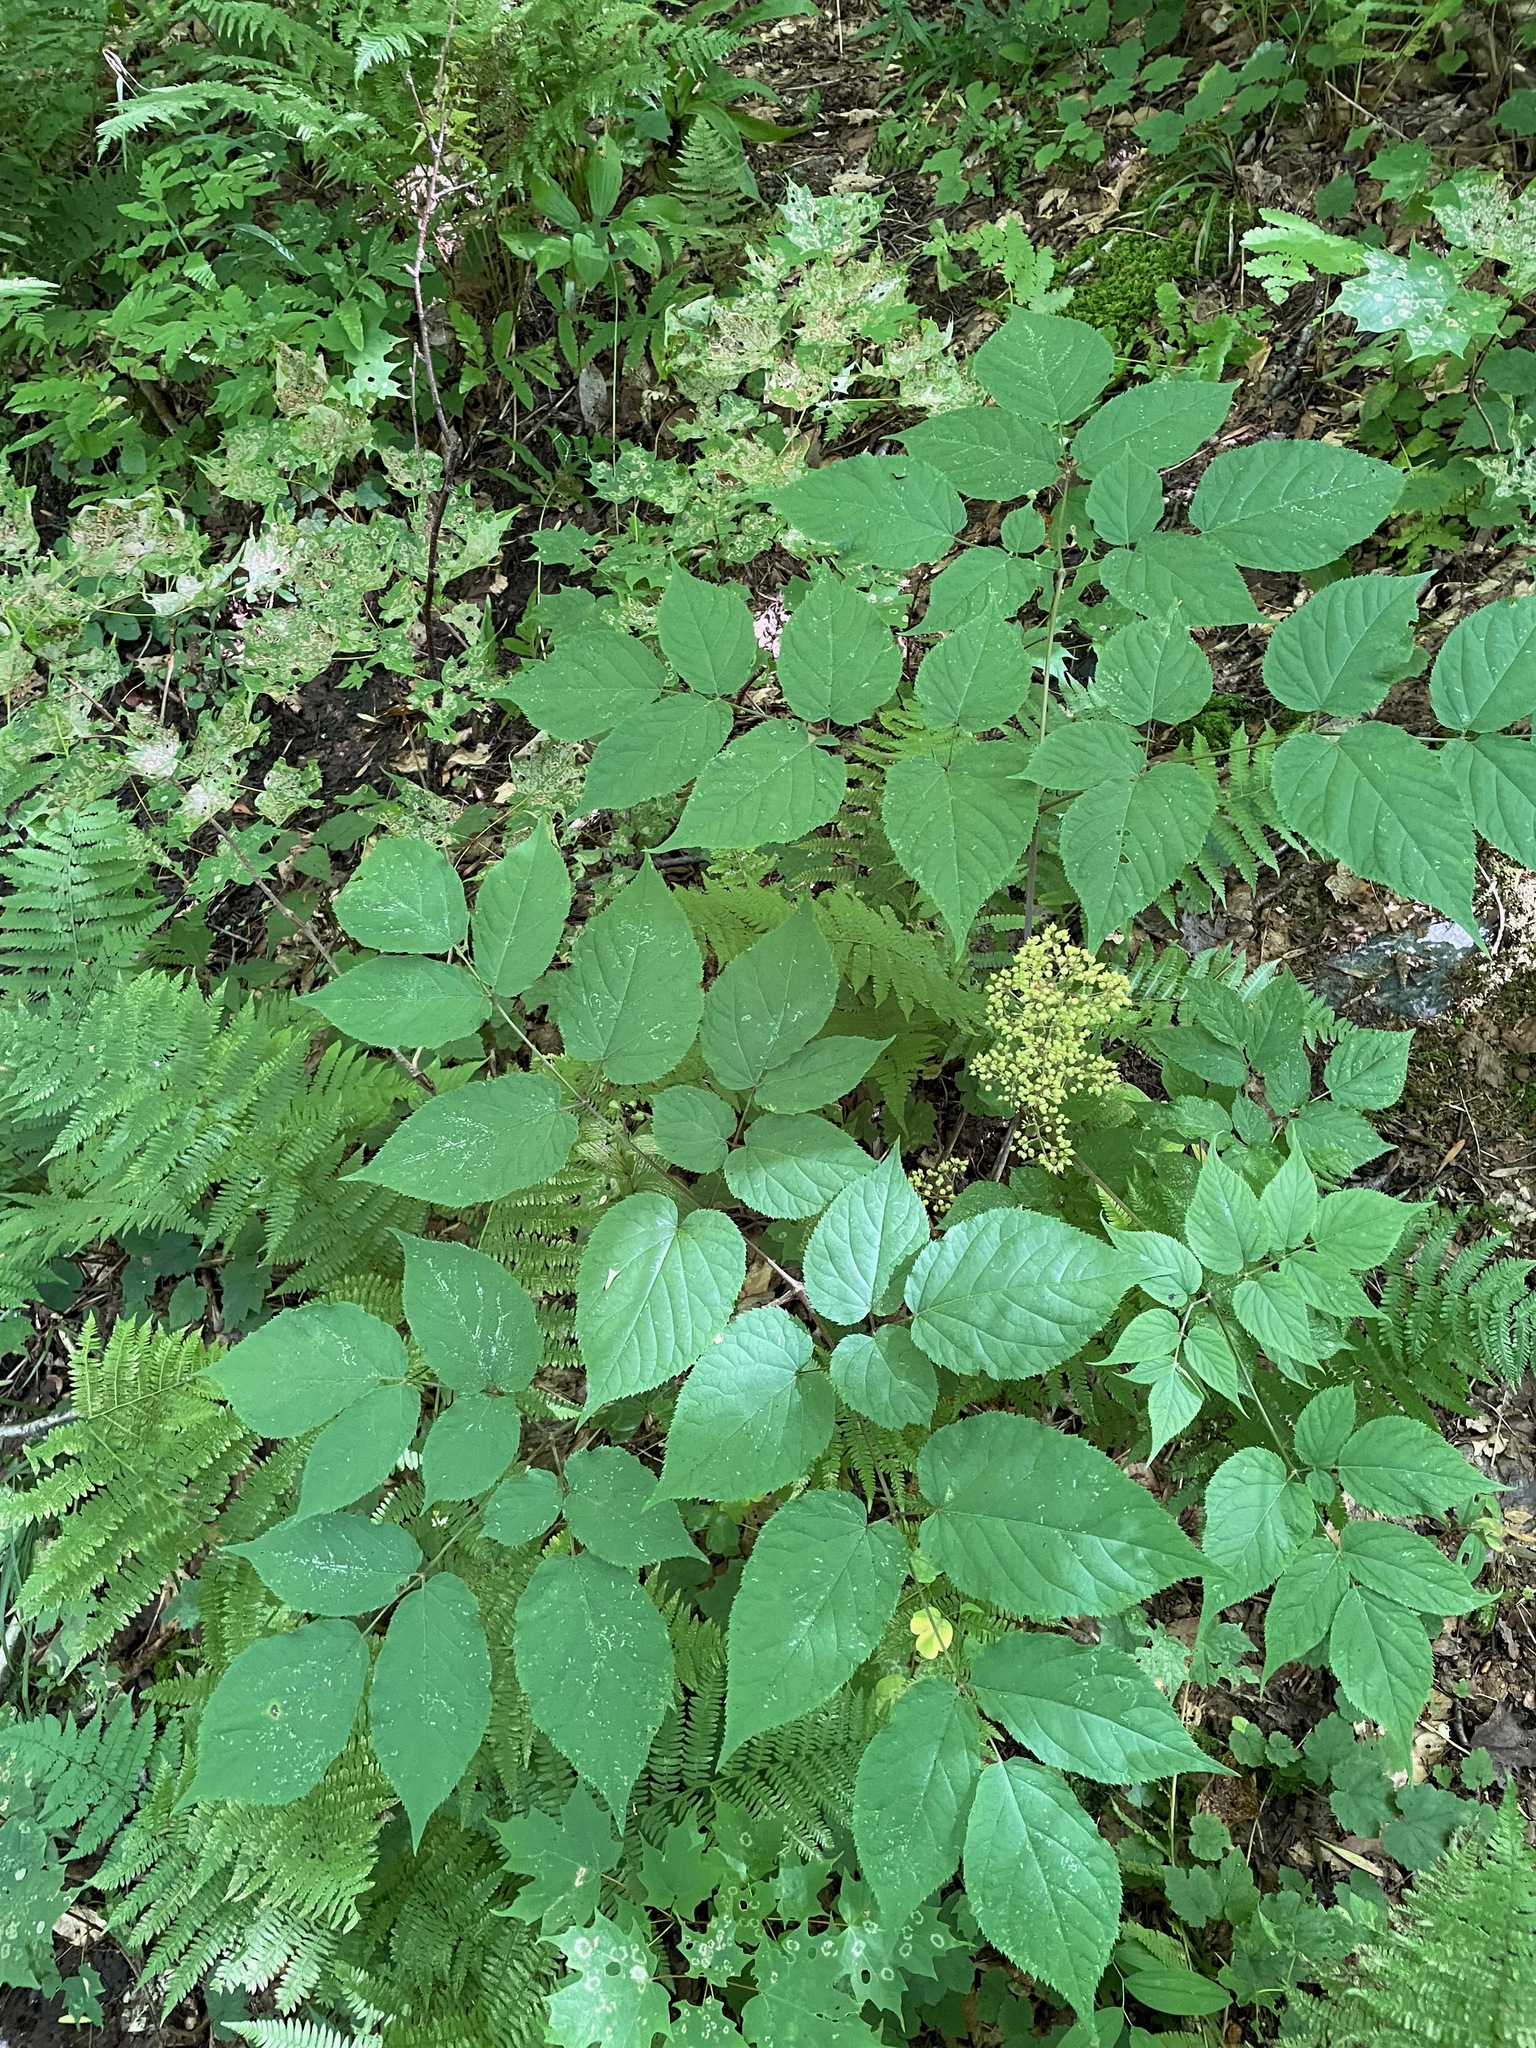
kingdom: Plantae
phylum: Tracheophyta
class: Magnoliopsida
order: Apiales
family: Araliaceae
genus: Aralia
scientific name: Aralia racemosa
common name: American-spikenard
